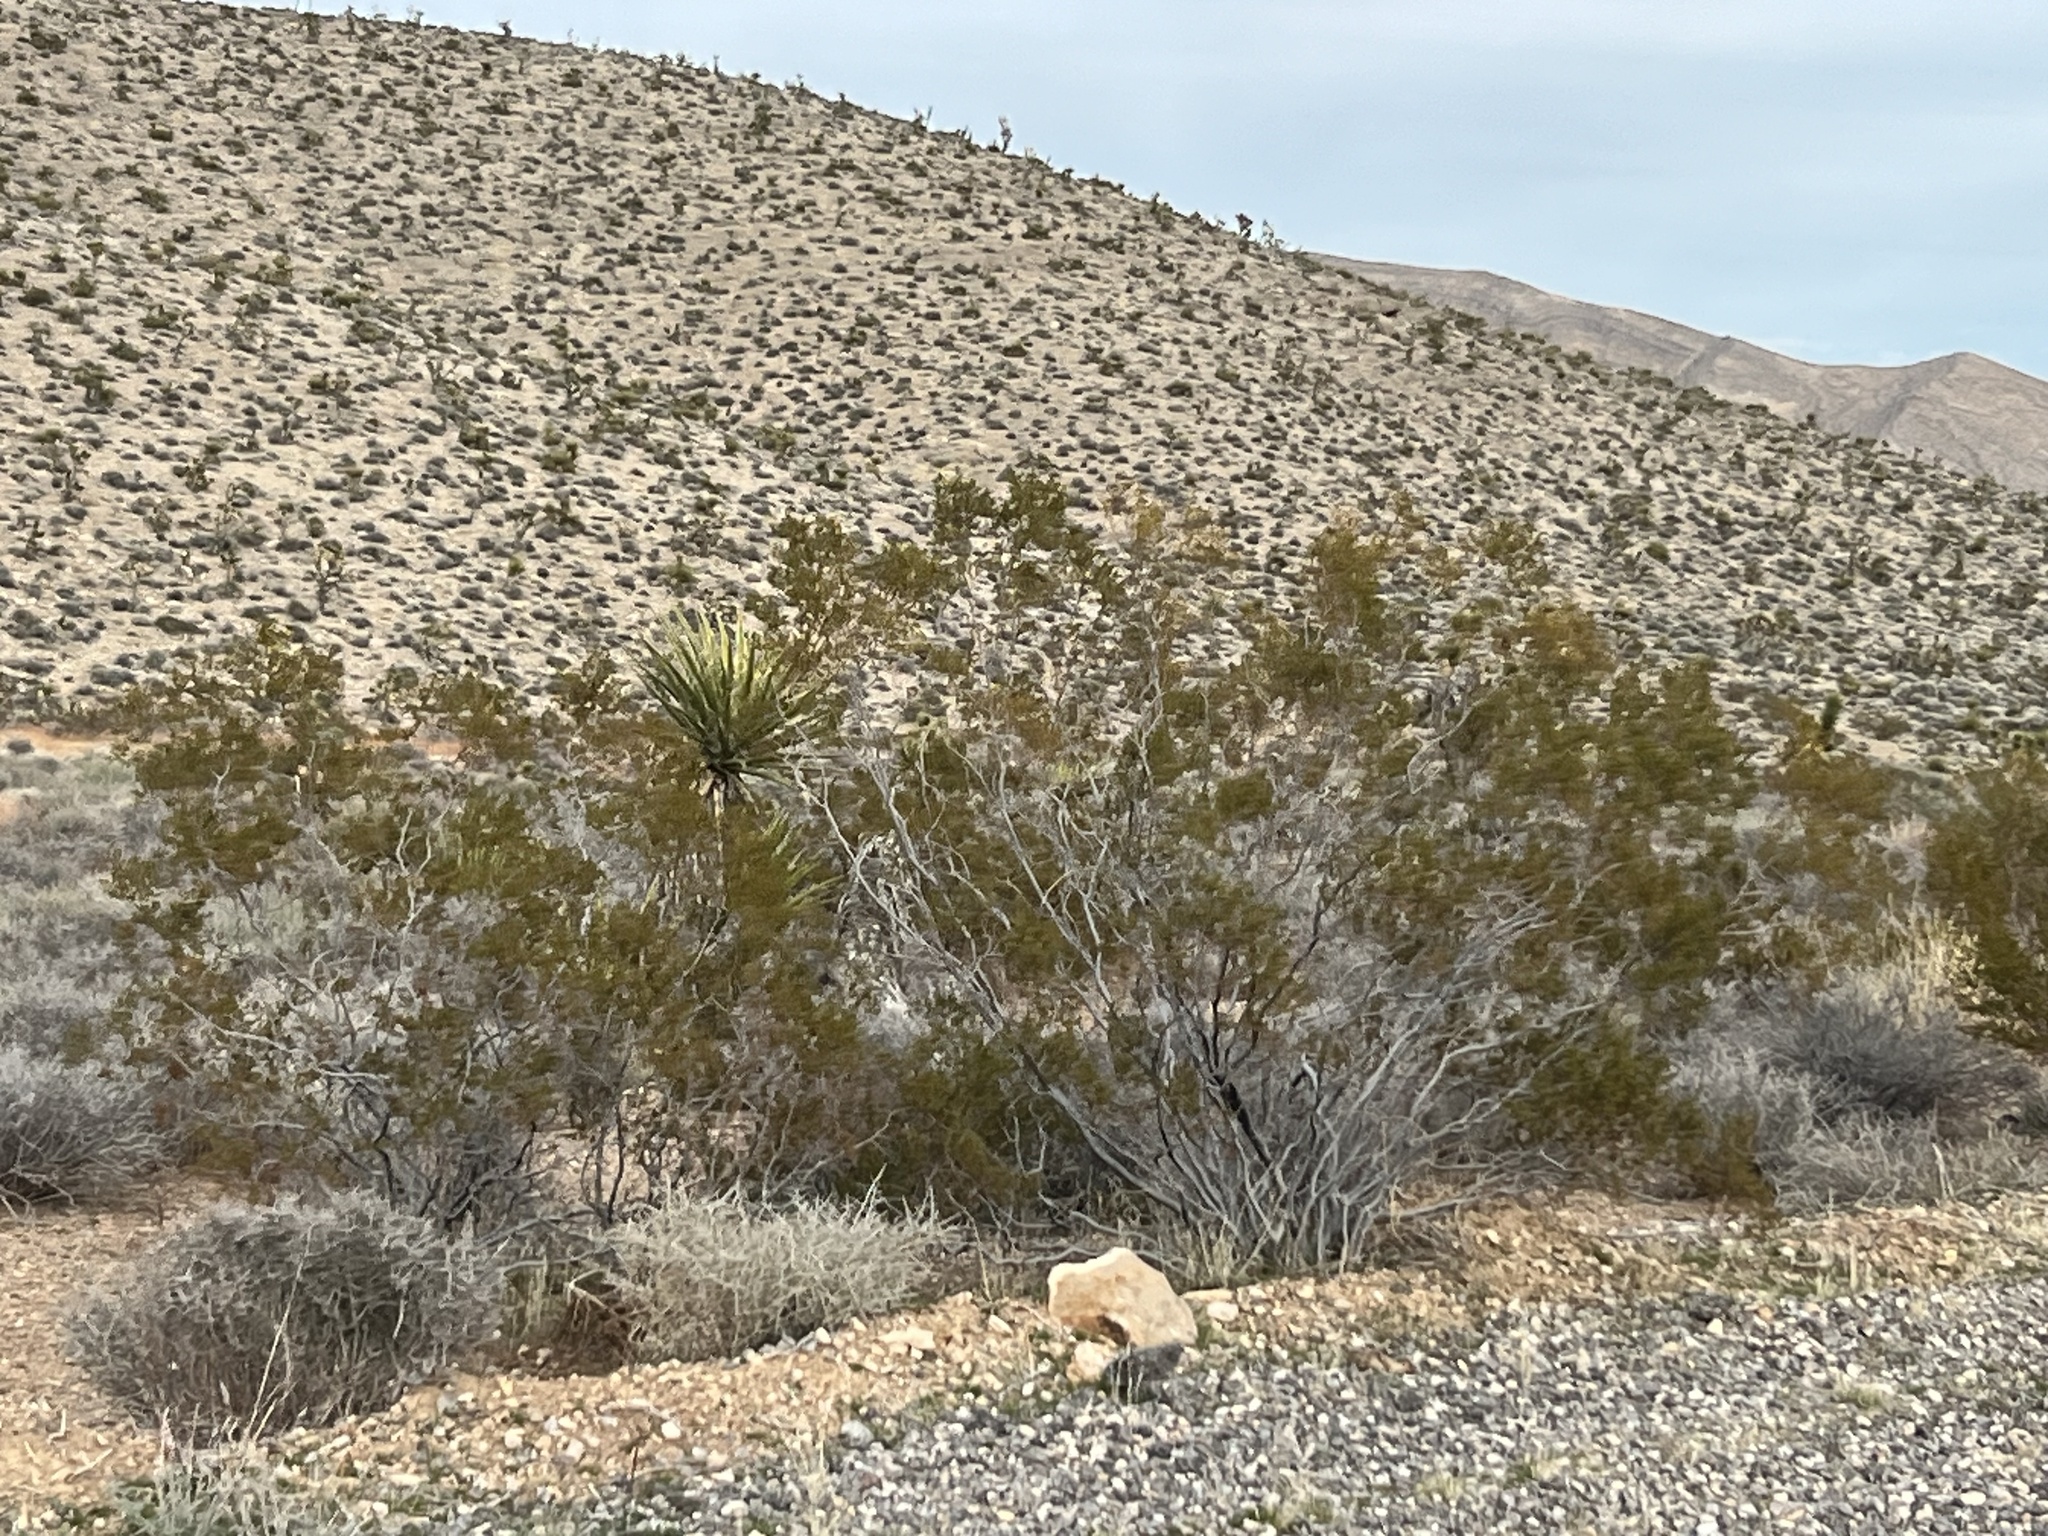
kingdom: Plantae
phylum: Tracheophyta
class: Magnoliopsida
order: Zygophyllales
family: Zygophyllaceae
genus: Larrea
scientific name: Larrea tridentata
